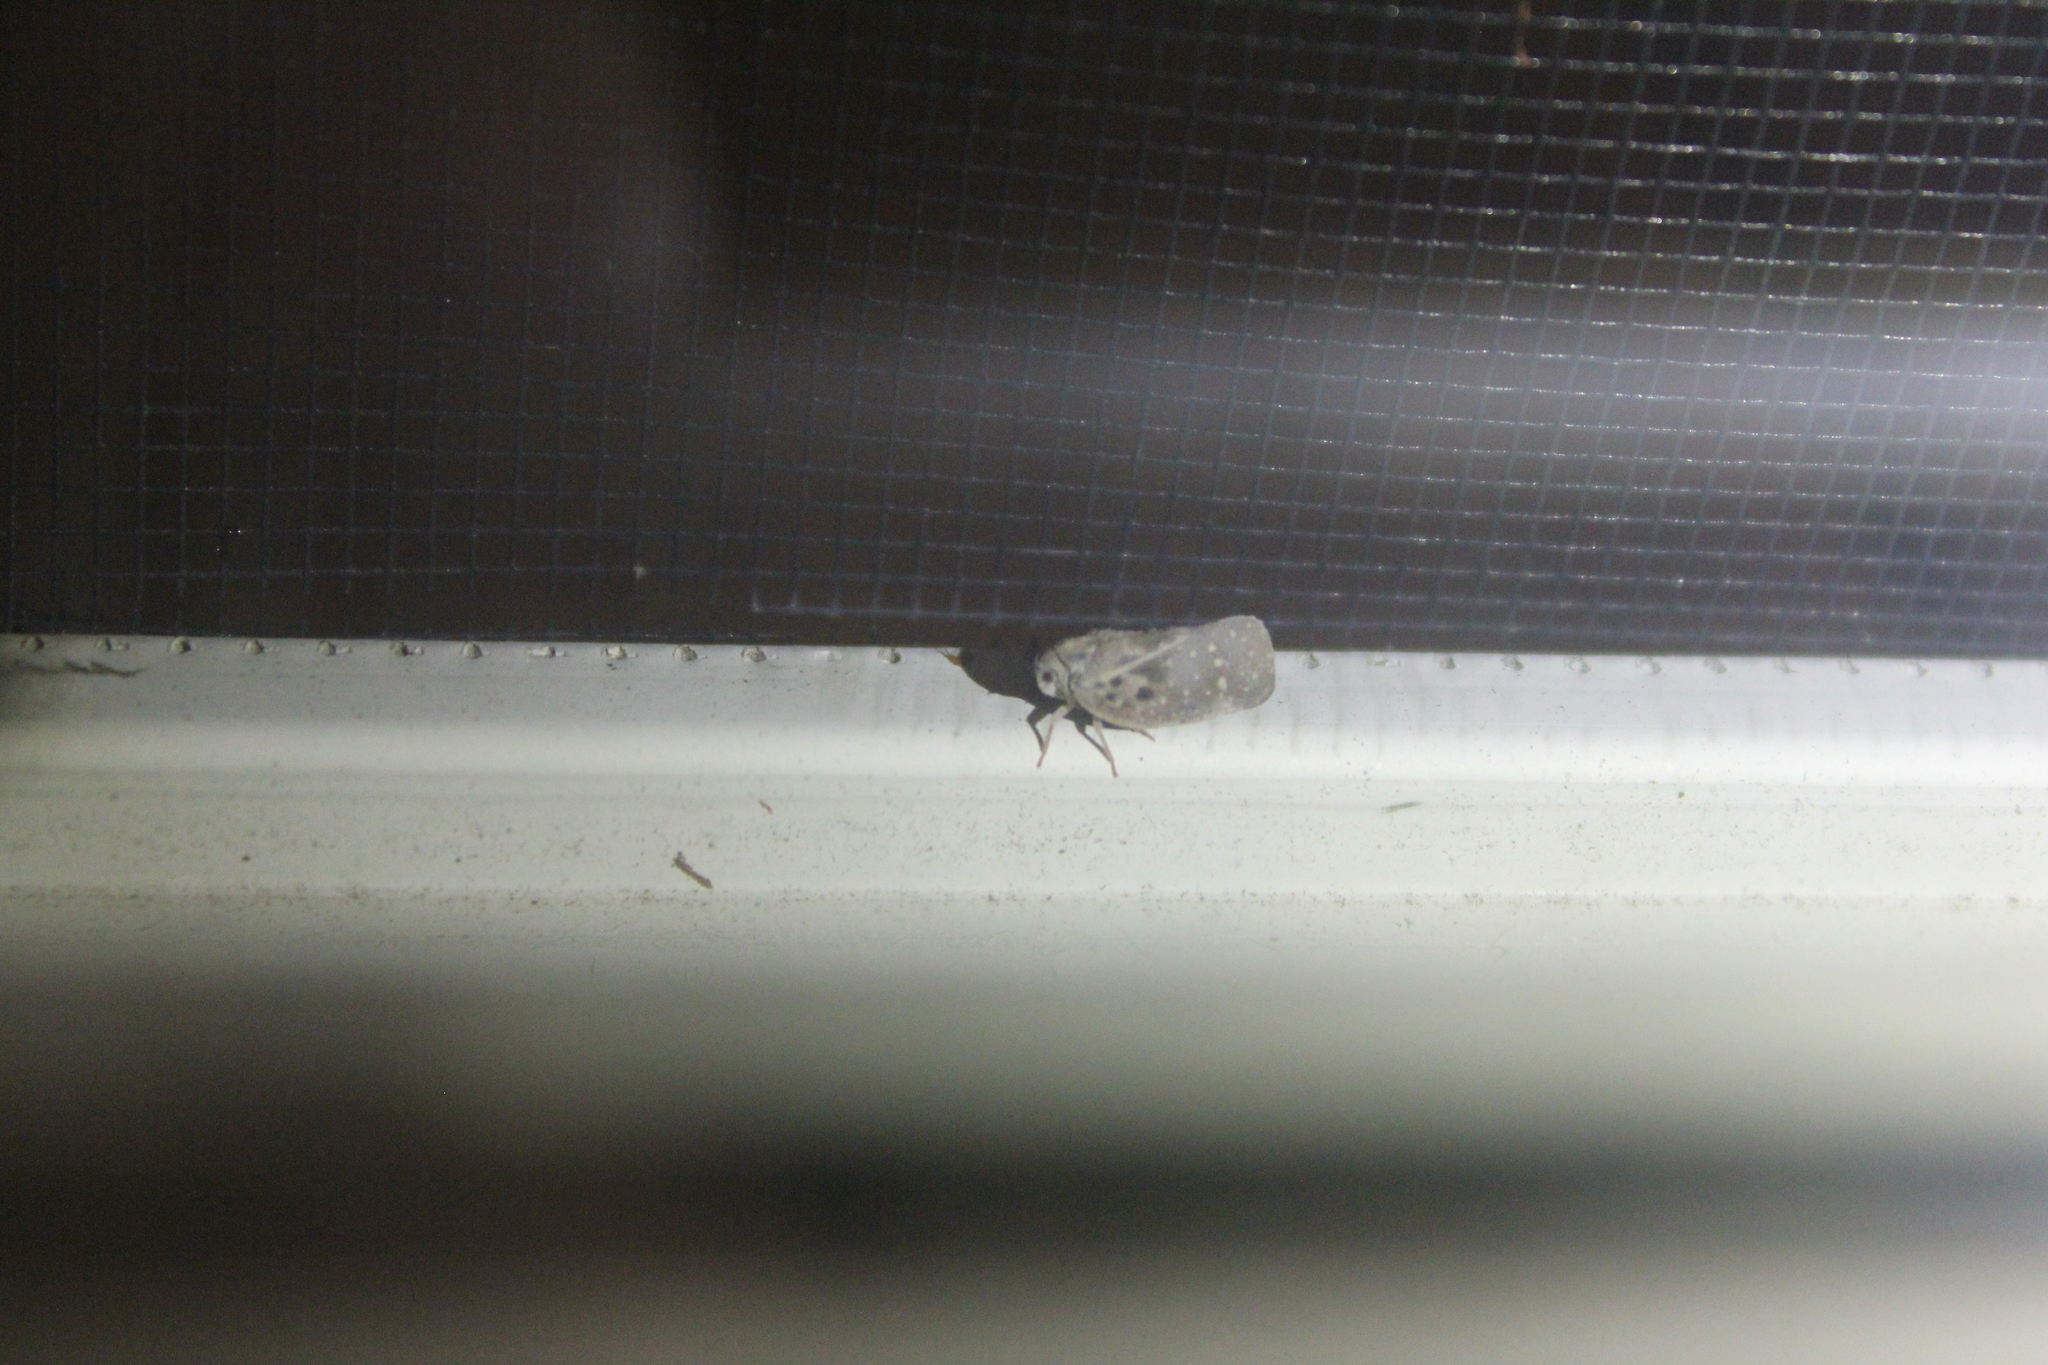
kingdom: Animalia
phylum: Arthropoda
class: Insecta
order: Hemiptera
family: Flatidae
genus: Metcalfa
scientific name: Metcalfa pruinosa
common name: Citrus flatid planthopper
